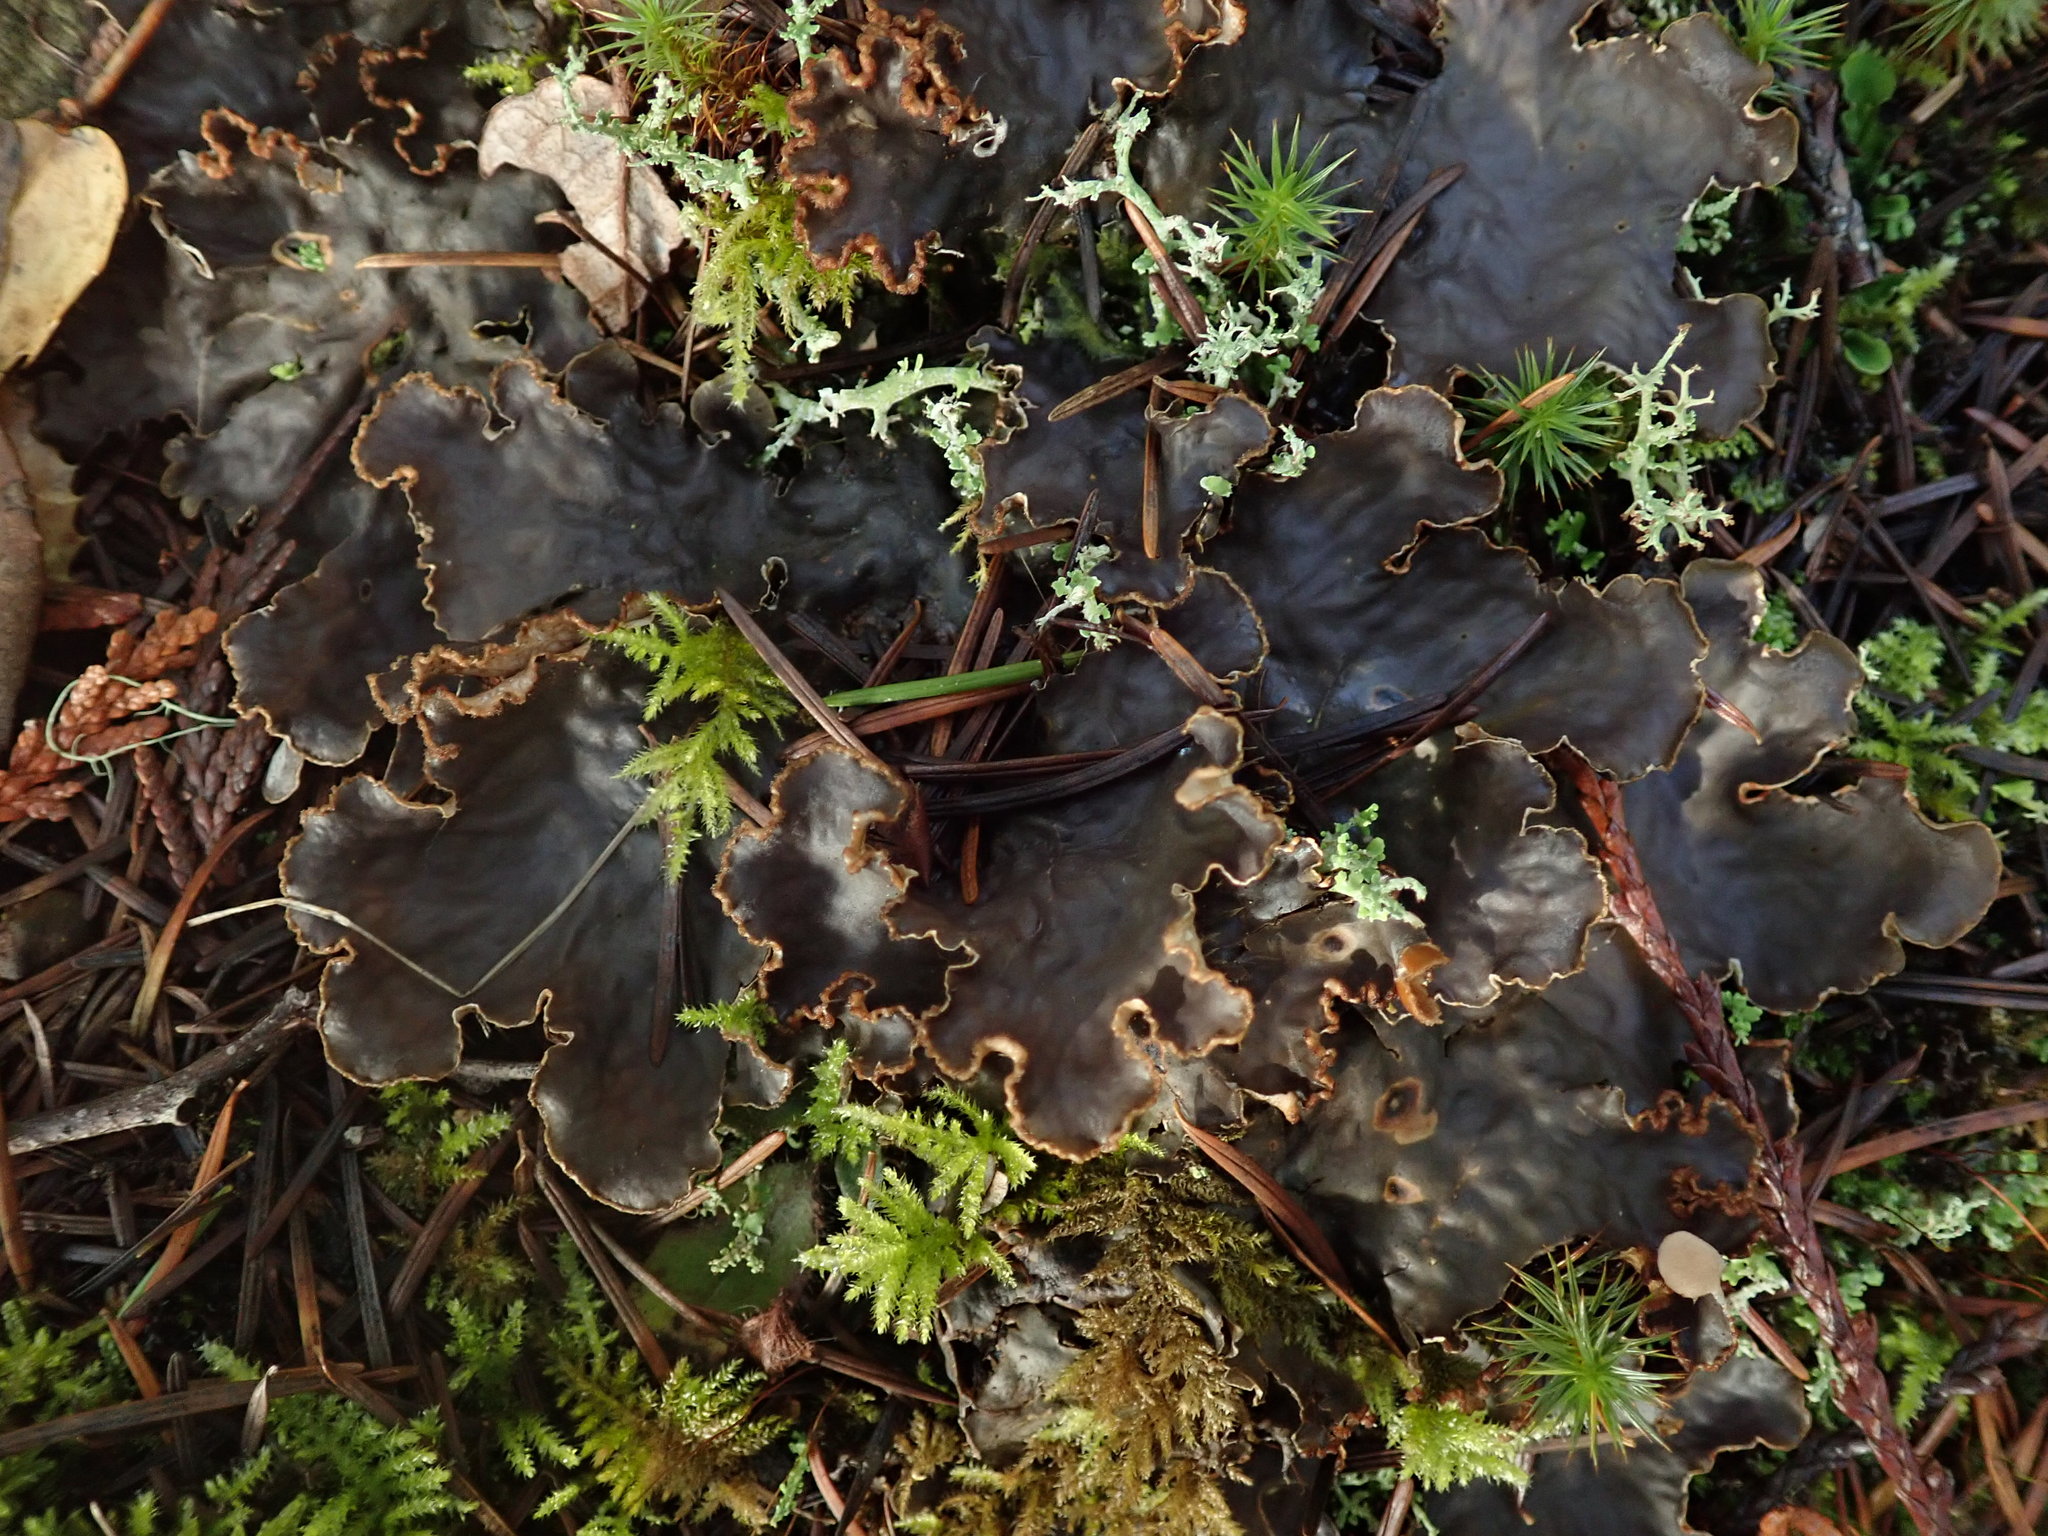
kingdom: Fungi
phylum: Ascomycota
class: Lecanoromycetes
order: Peltigerales
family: Peltigeraceae
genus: Peltigera
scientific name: Peltigera membranacea
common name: Membranous pelt lichen
